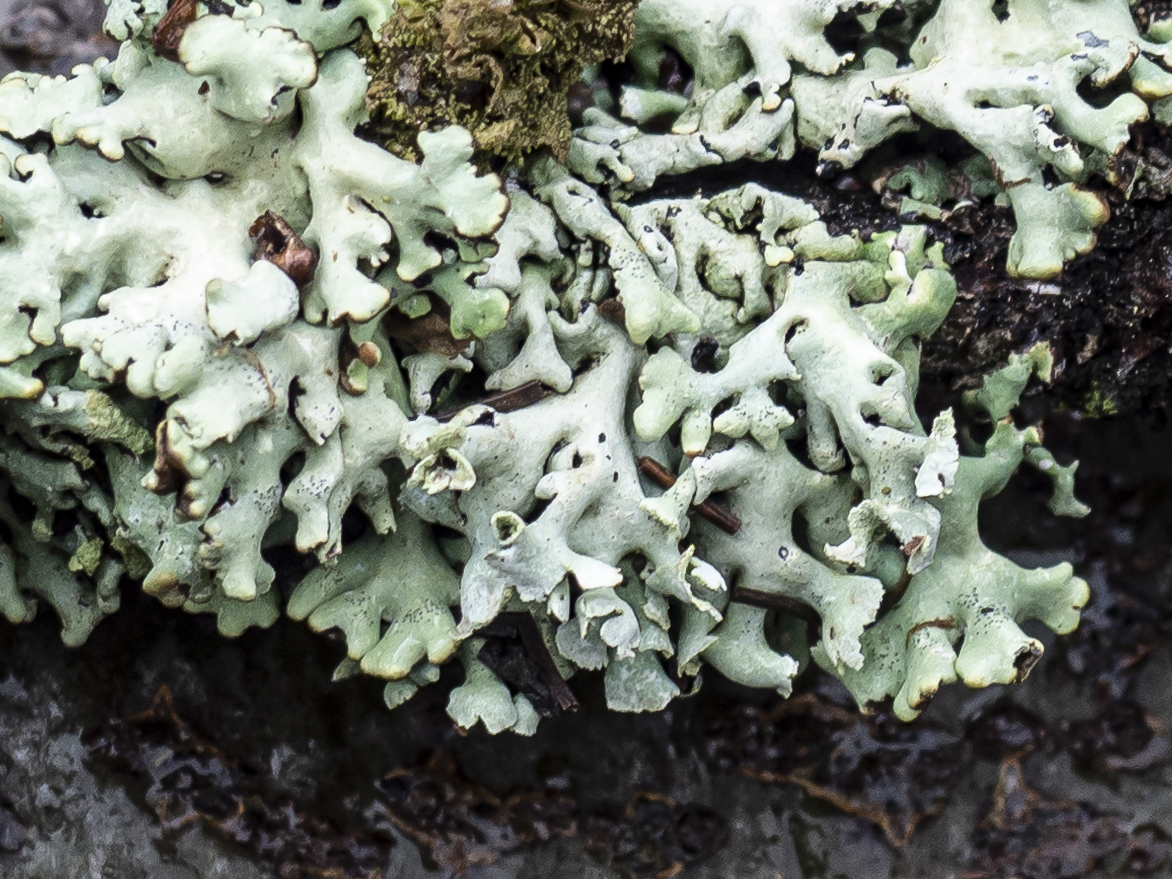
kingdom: Fungi
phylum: Ascomycota
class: Lecanoromycetes
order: Lecanorales
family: Parmeliaceae
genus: Hypogymnia
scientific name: Hypogymnia physodes
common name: Dark crottle
